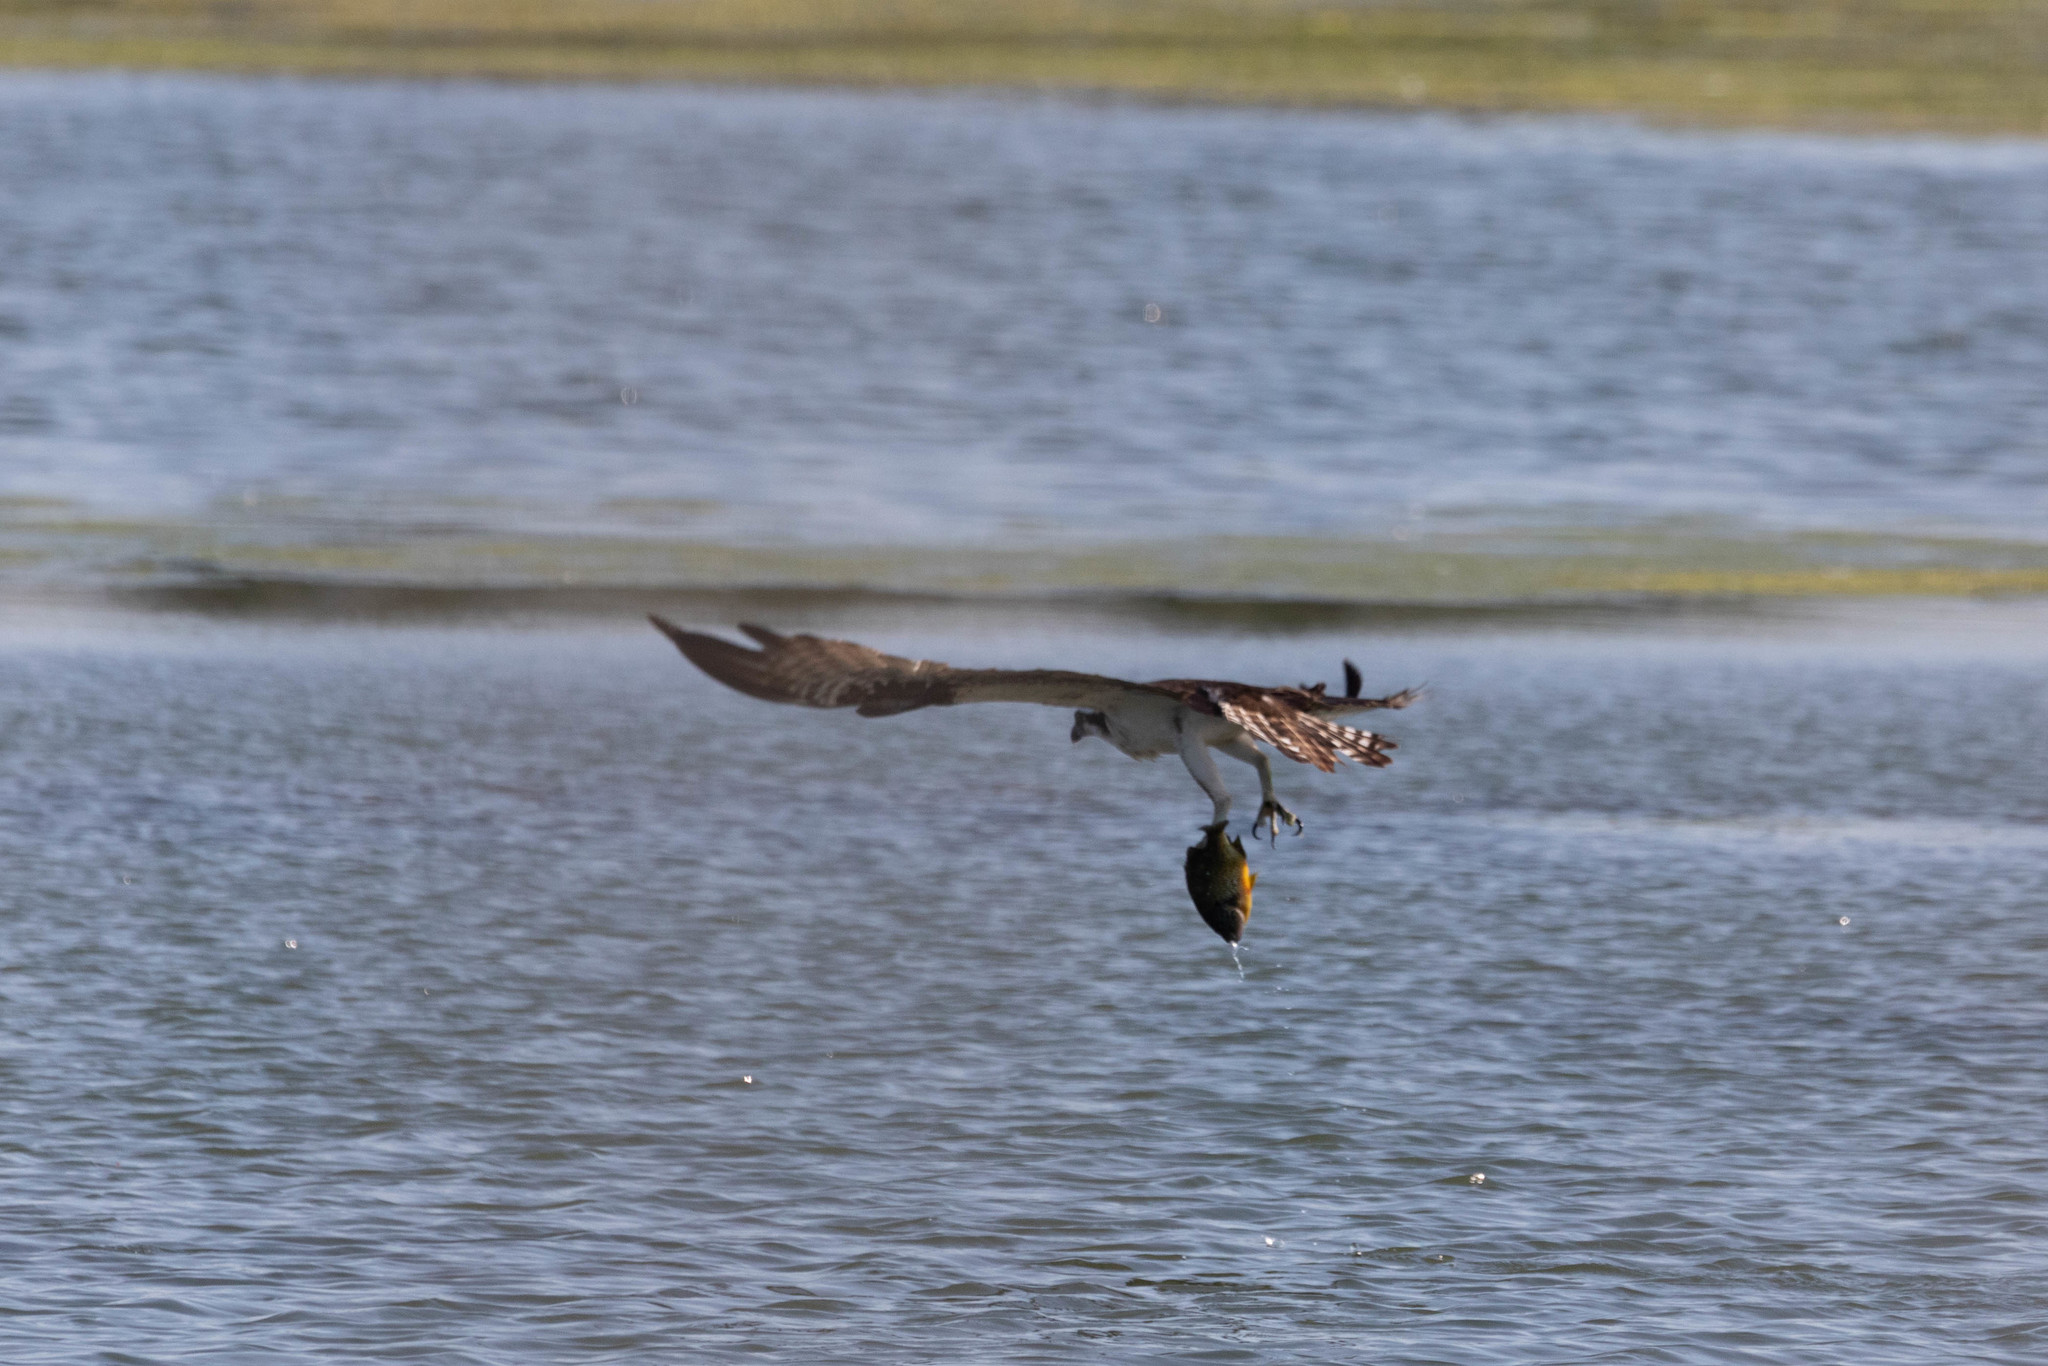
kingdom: Animalia
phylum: Chordata
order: Perciformes
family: Centrarchidae
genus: Lepomis
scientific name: Lepomis gibbosus
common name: Pumpkinseed
